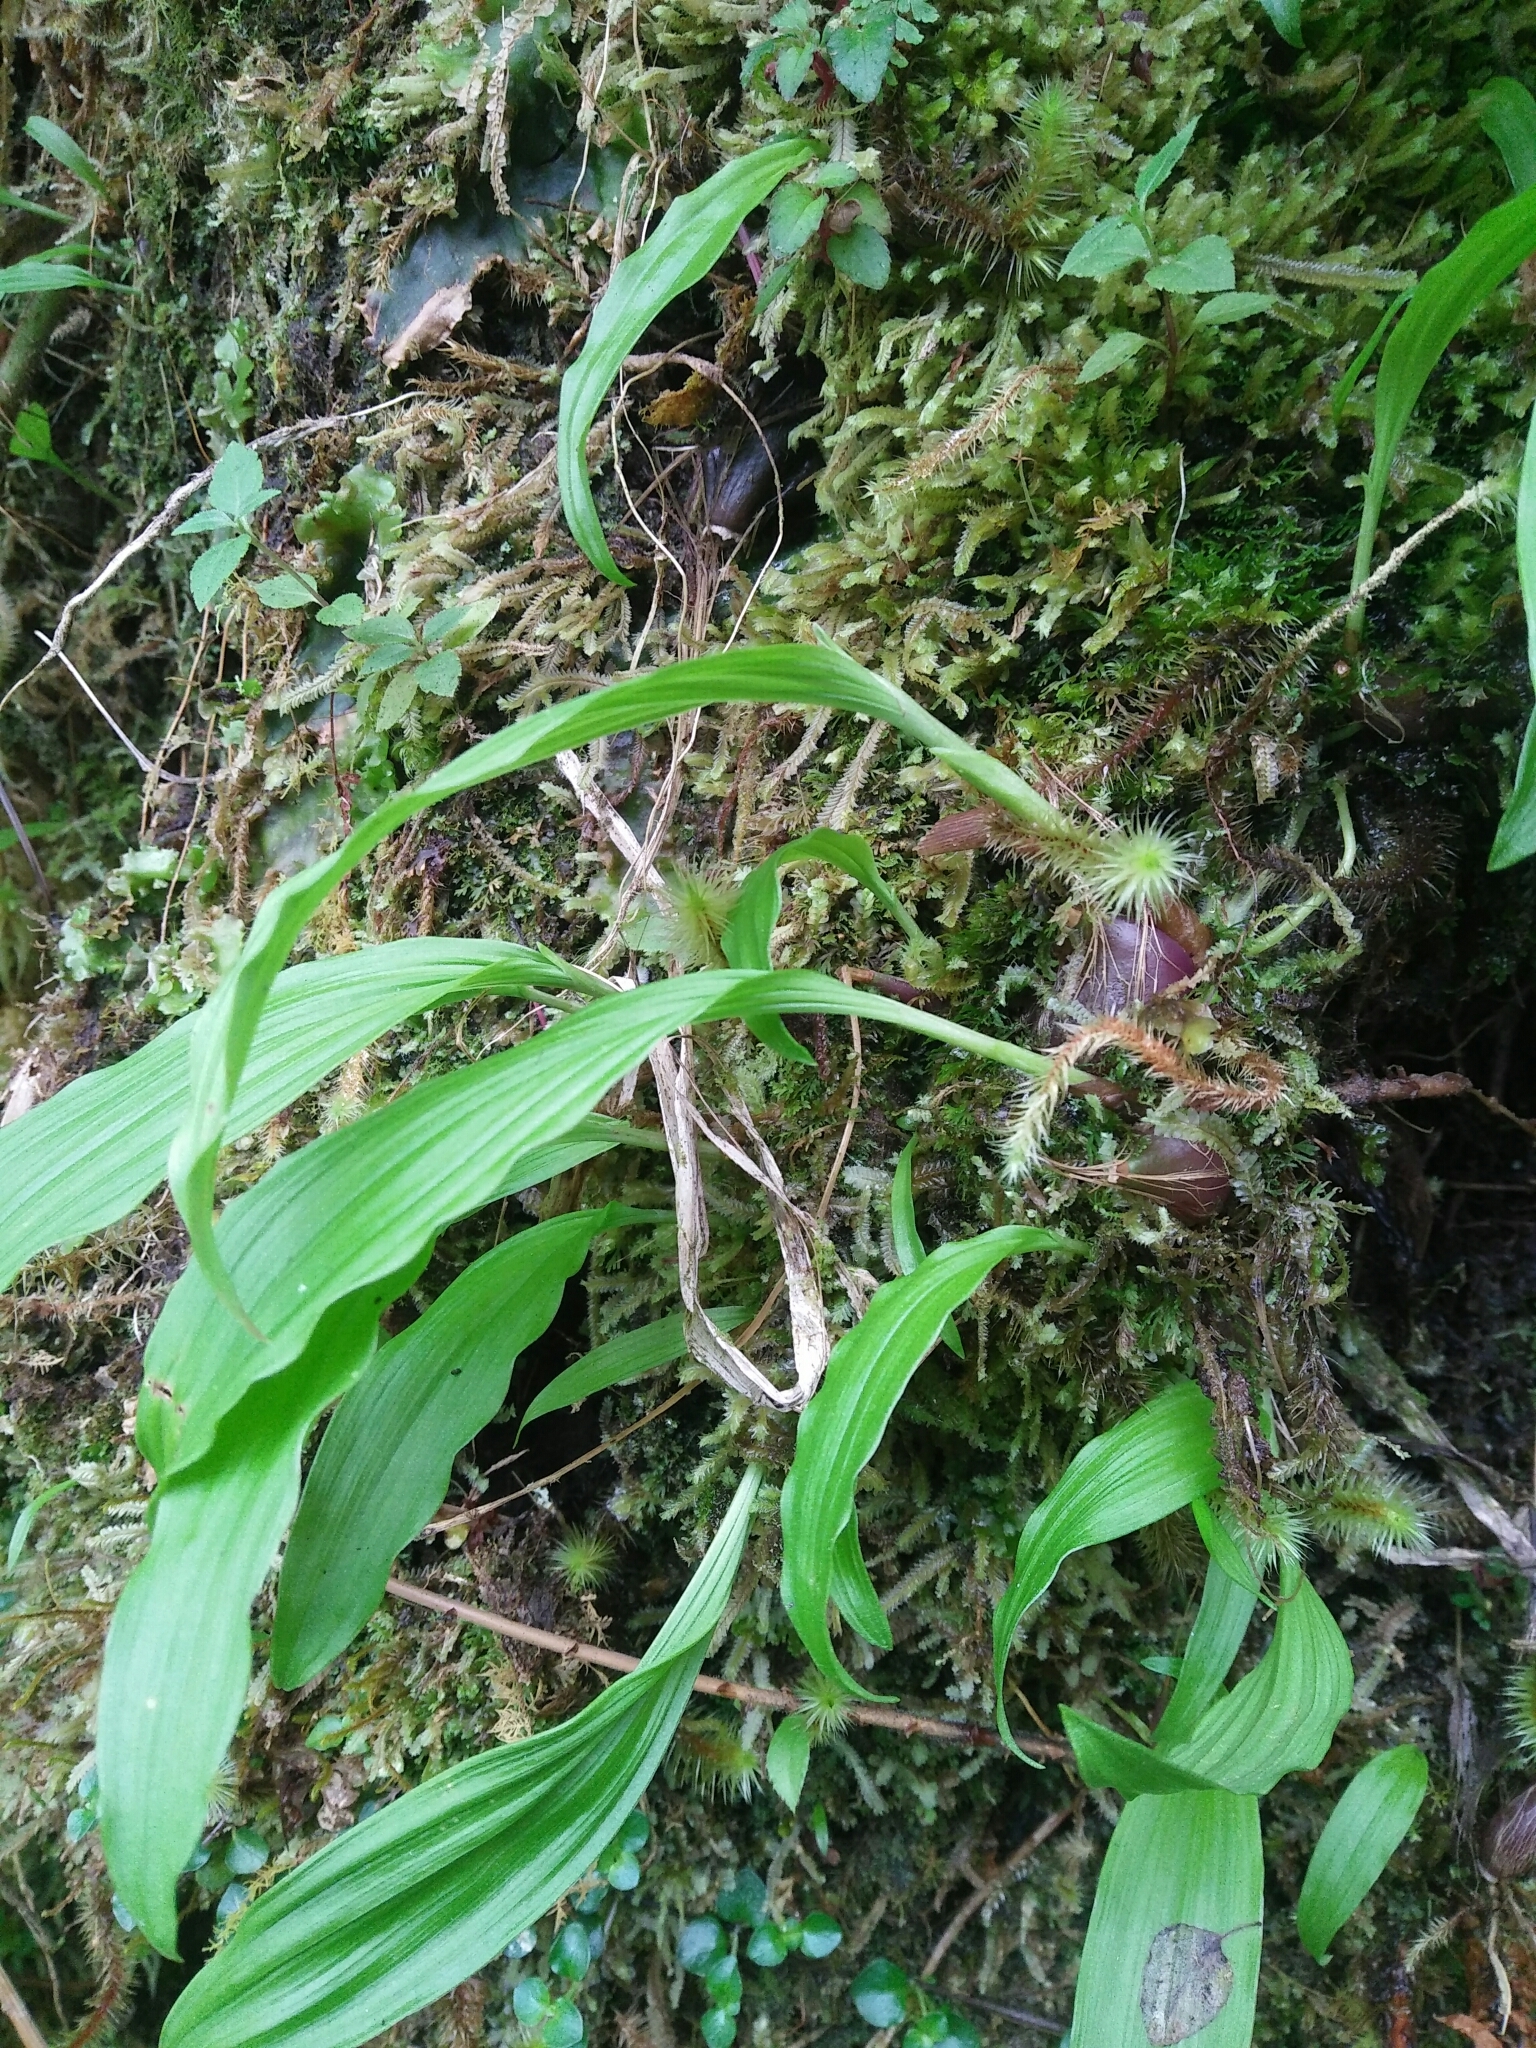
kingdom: Plantae
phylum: Tracheophyta
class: Liliopsida
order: Asparagales
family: Orchidaceae
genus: Pleione
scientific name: Pleione formosana
